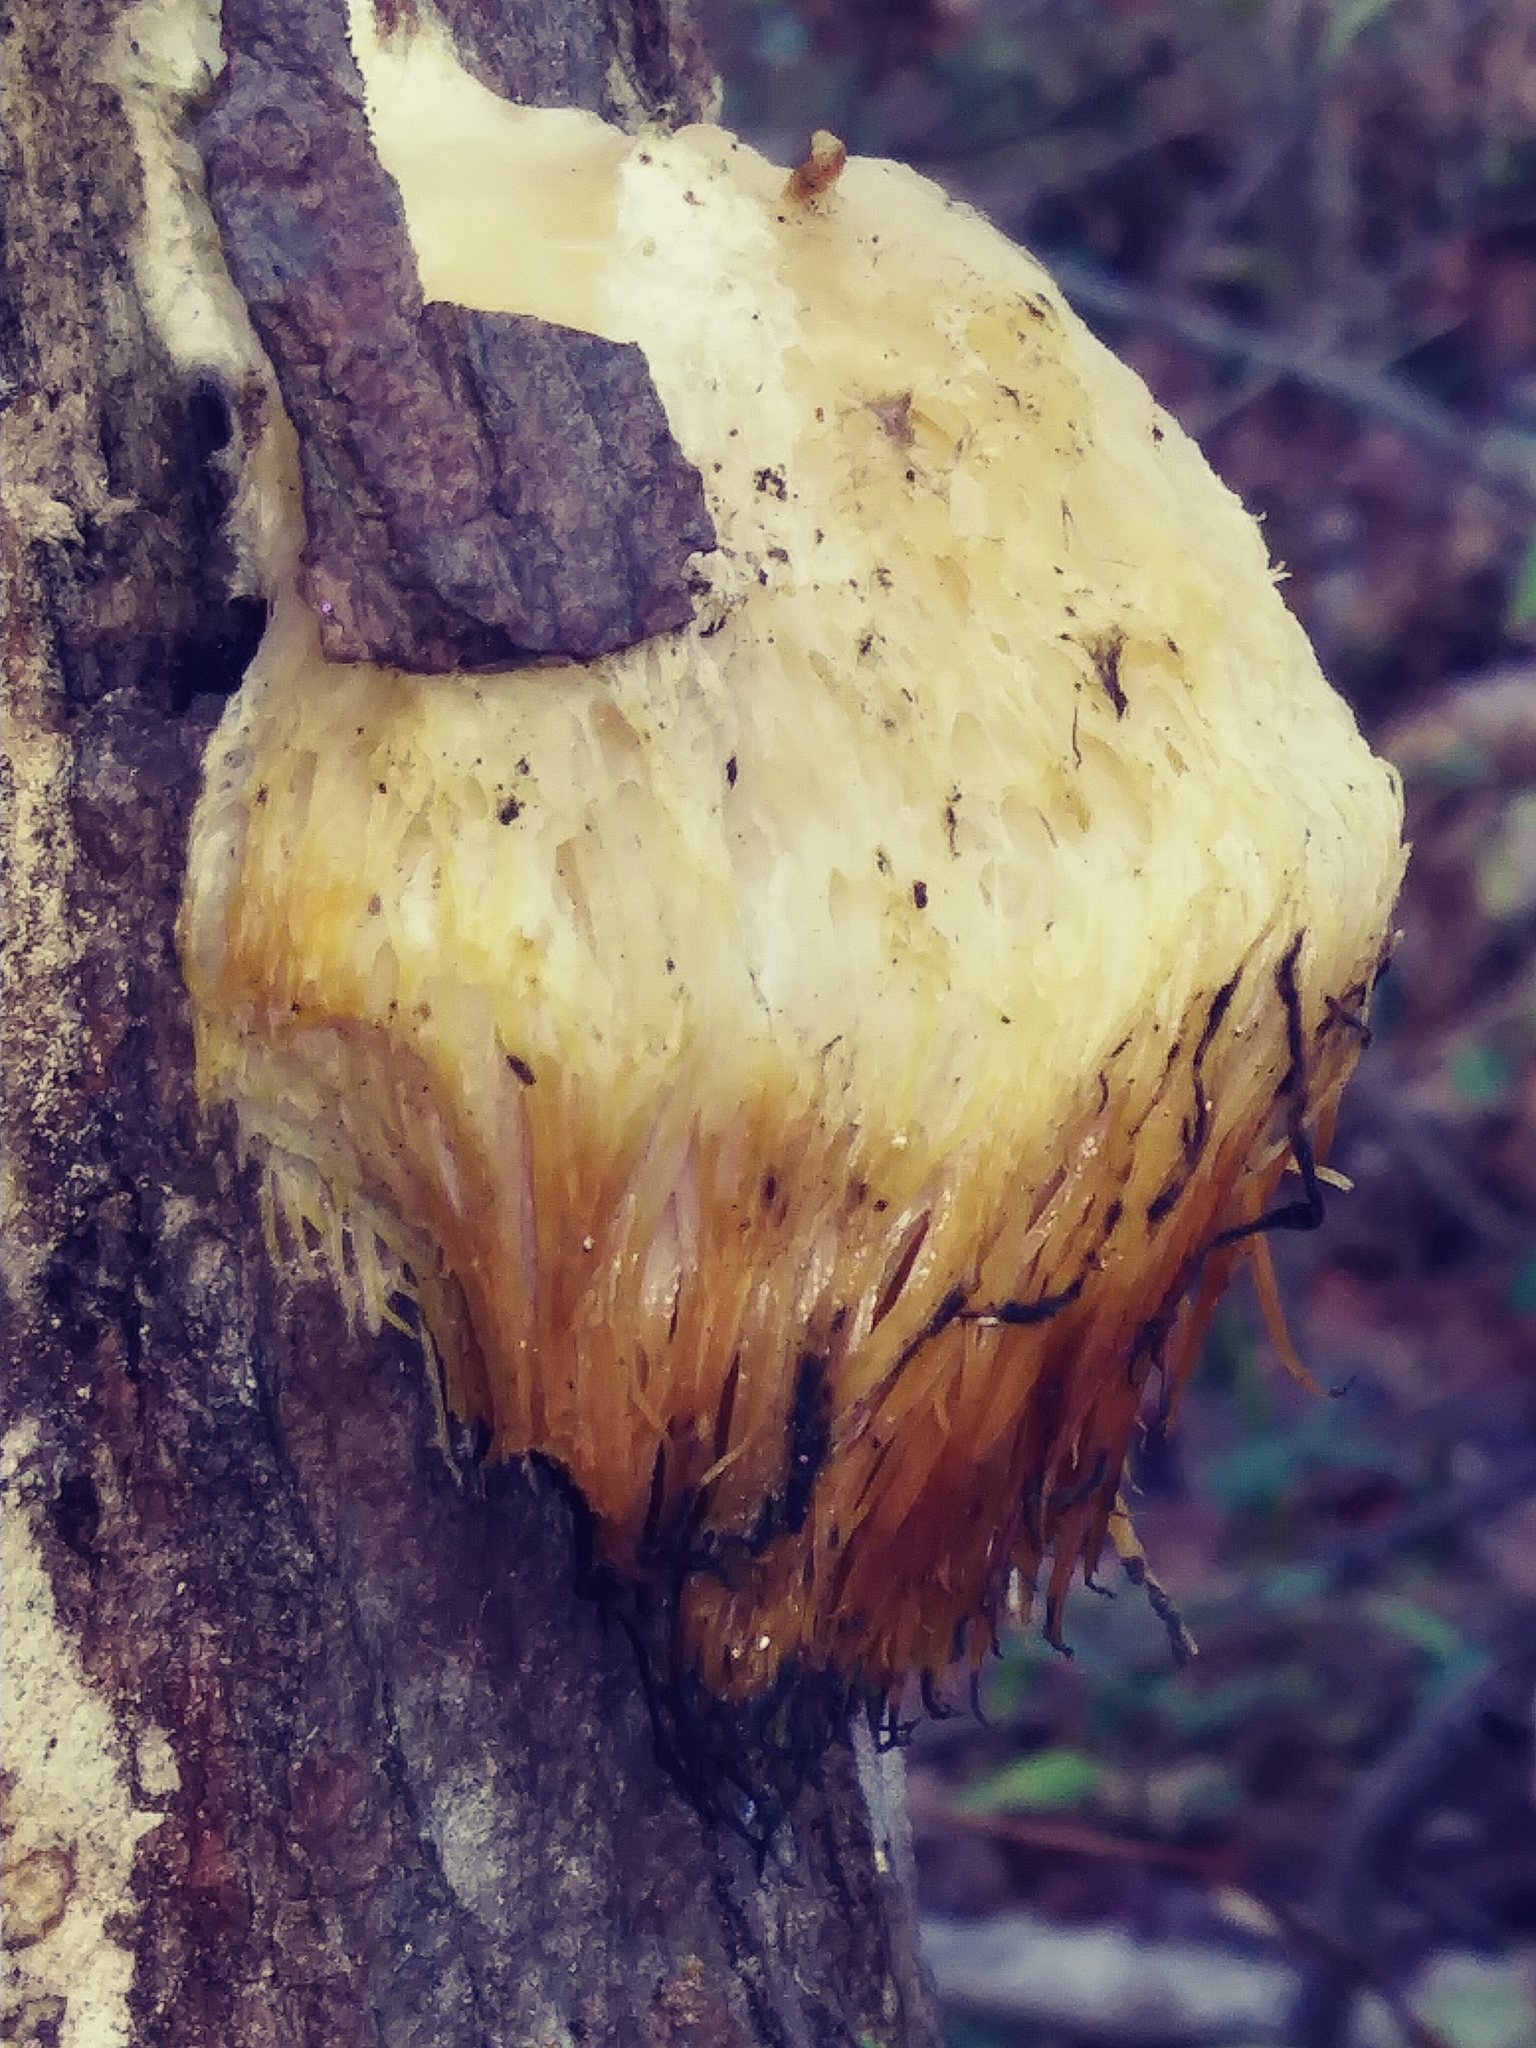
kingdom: Fungi
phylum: Basidiomycota
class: Agaricomycetes
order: Russulales
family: Hericiaceae
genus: Hericium
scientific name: Hericium erinaceus
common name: Bearded tooth
